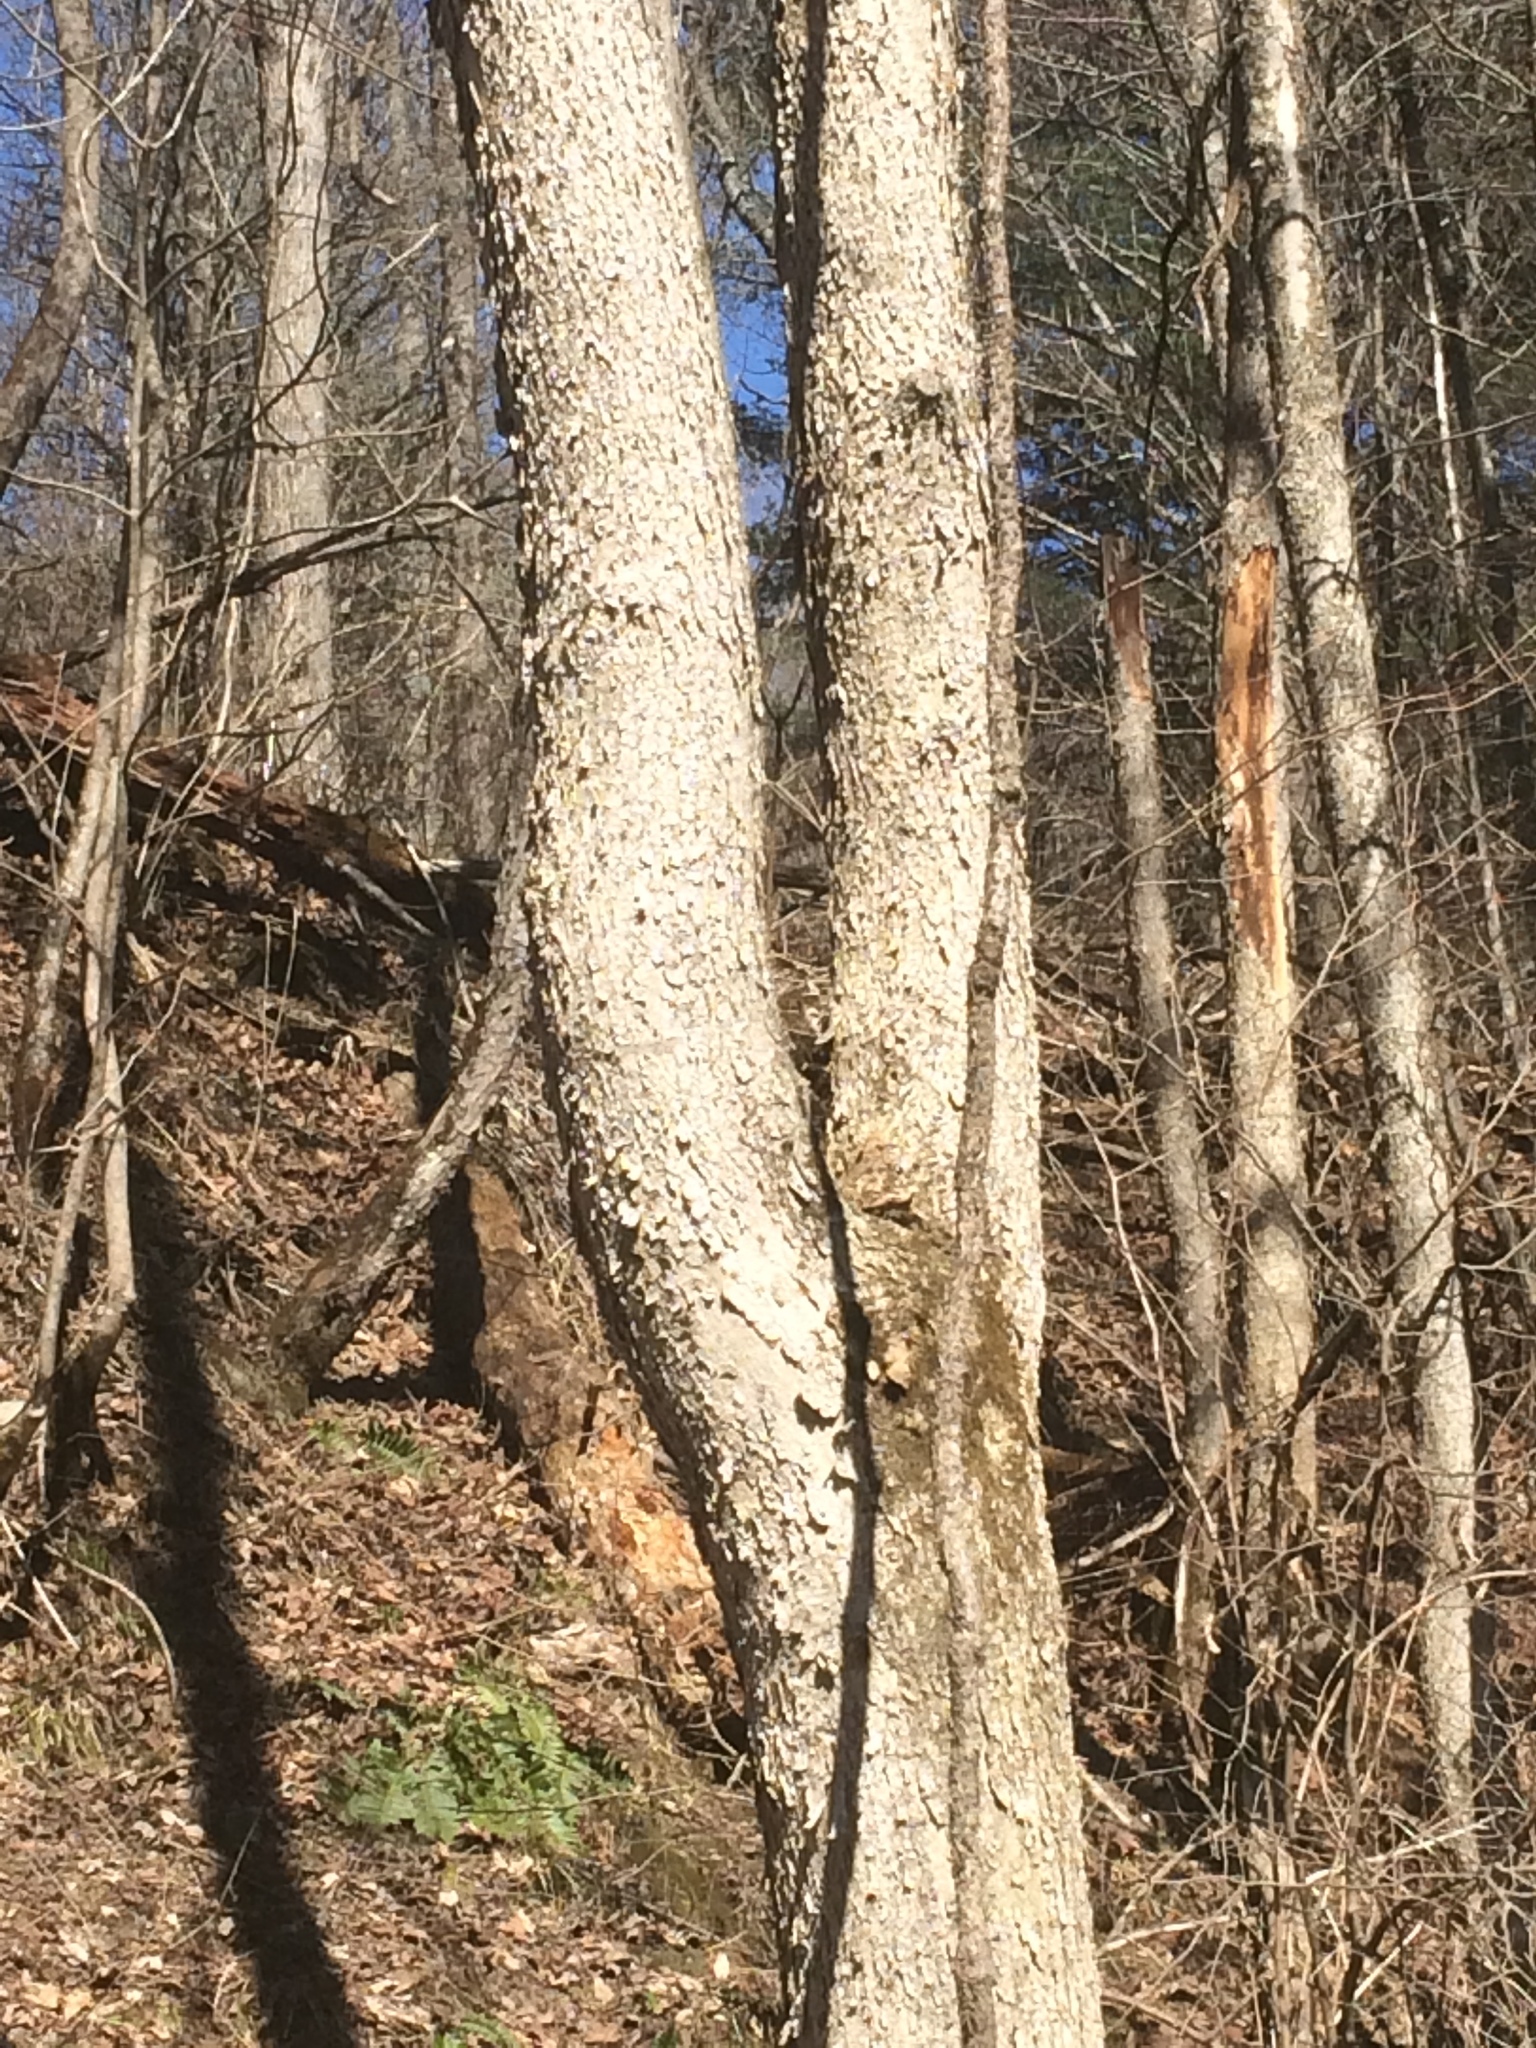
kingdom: Plantae
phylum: Tracheophyta
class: Magnoliopsida
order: Lamiales
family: Oleaceae
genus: Fraxinus
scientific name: Fraxinus nigra
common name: Black ash
